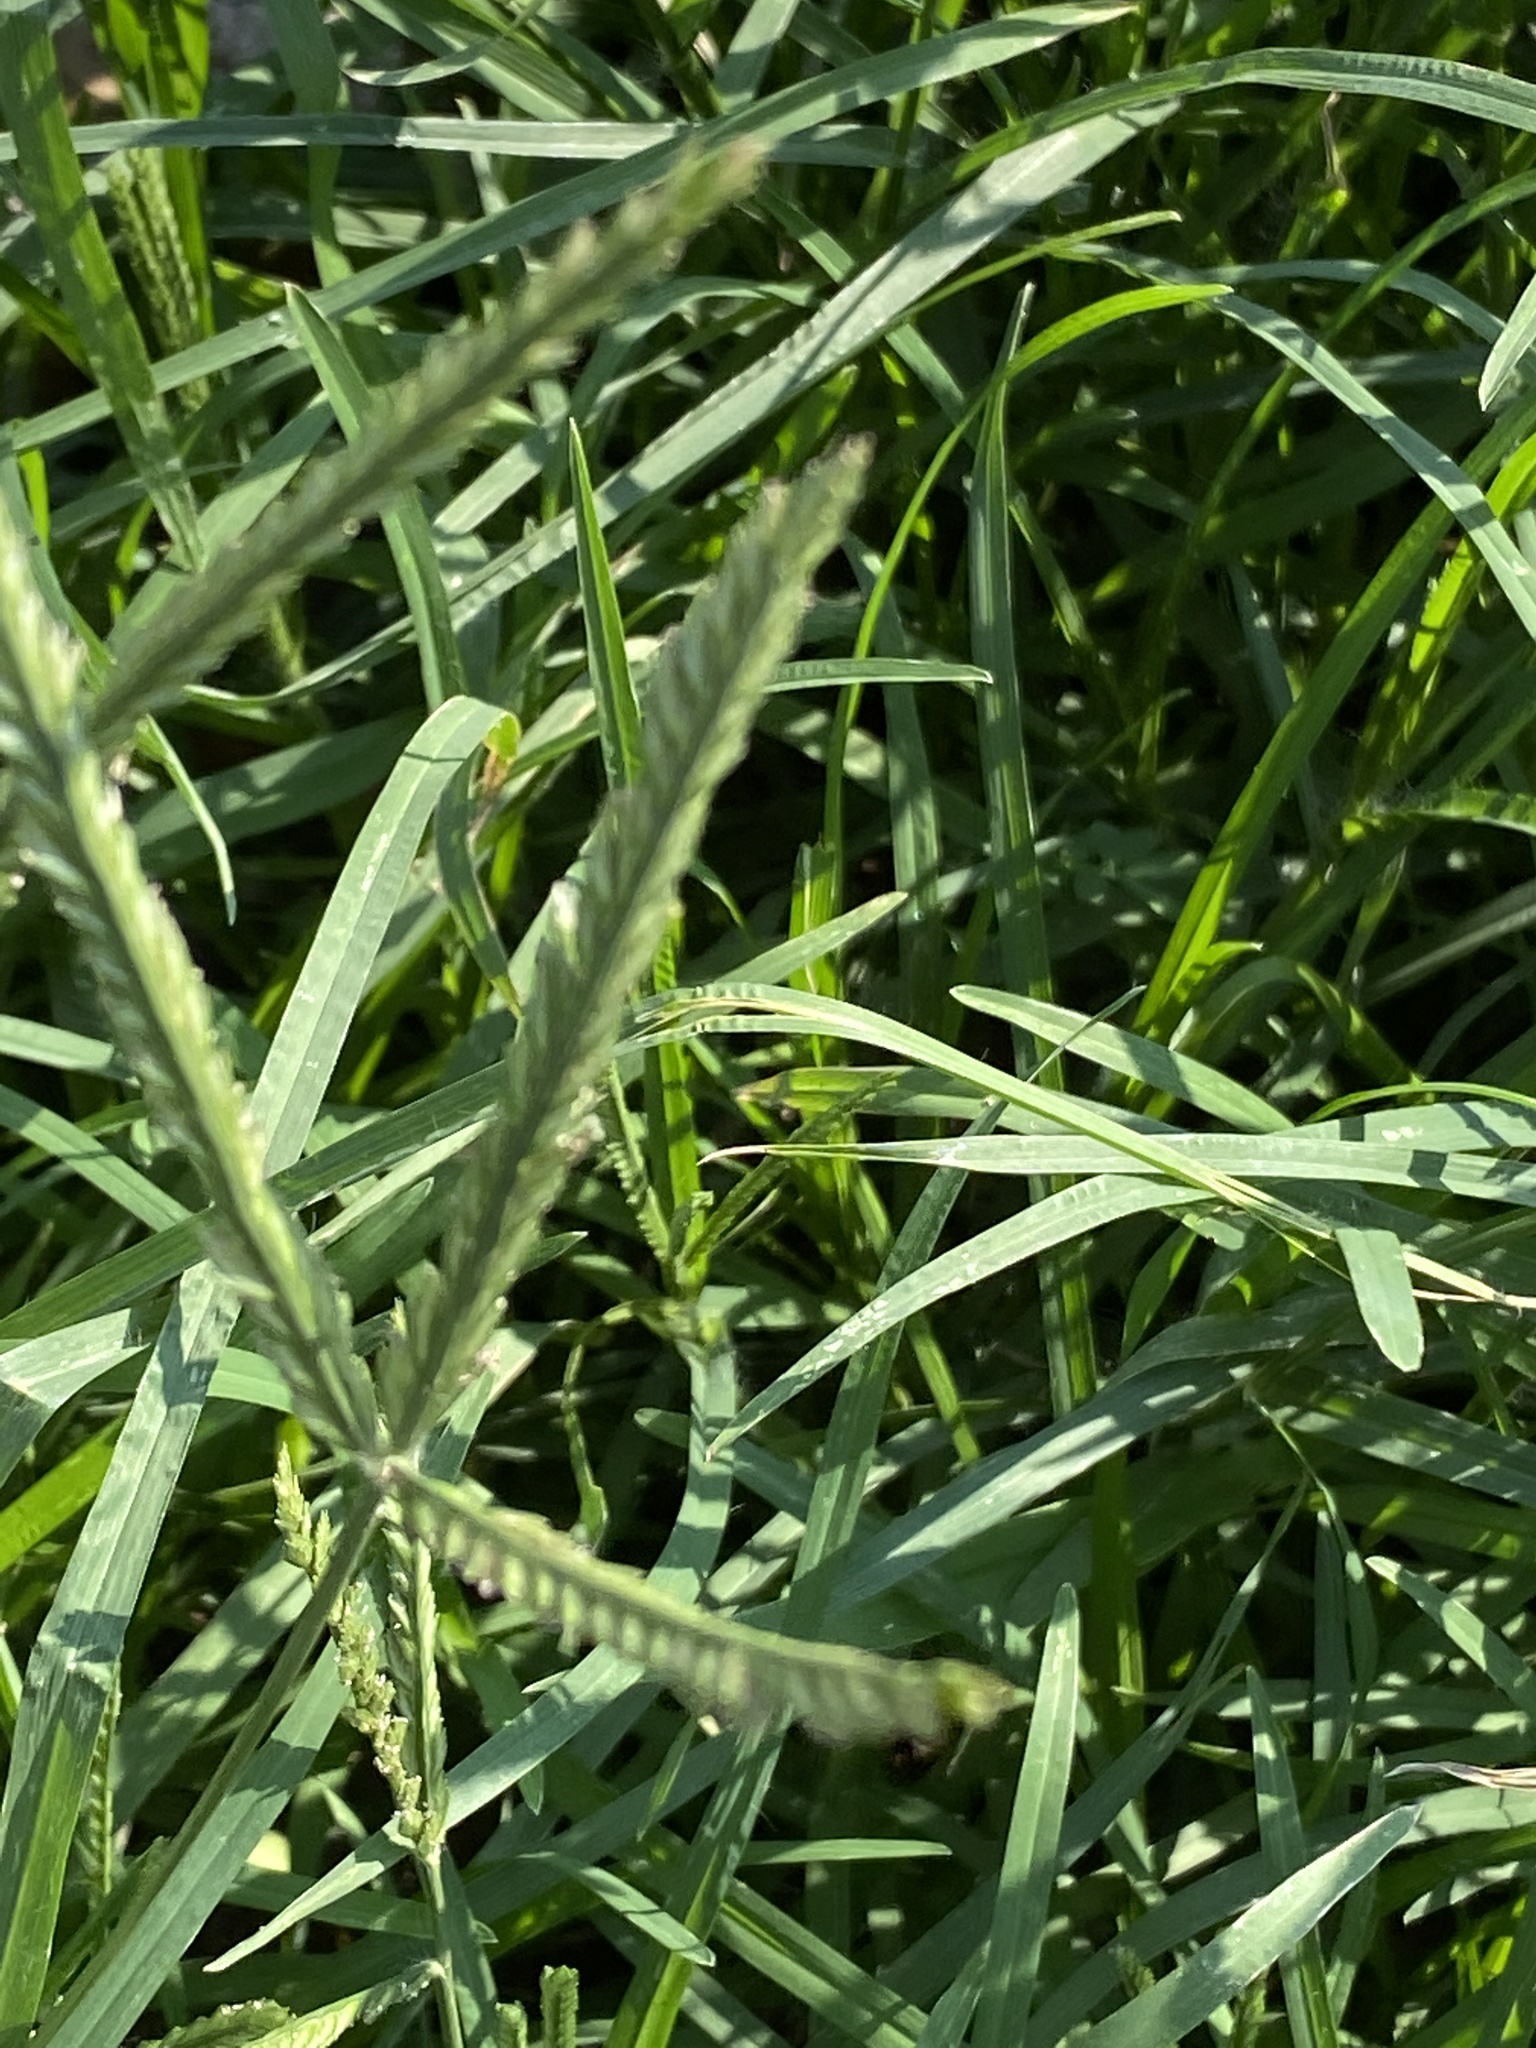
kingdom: Plantae
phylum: Tracheophyta
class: Liliopsida
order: Poales
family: Poaceae
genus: Eleusine
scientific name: Eleusine indica
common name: Yard-grass
